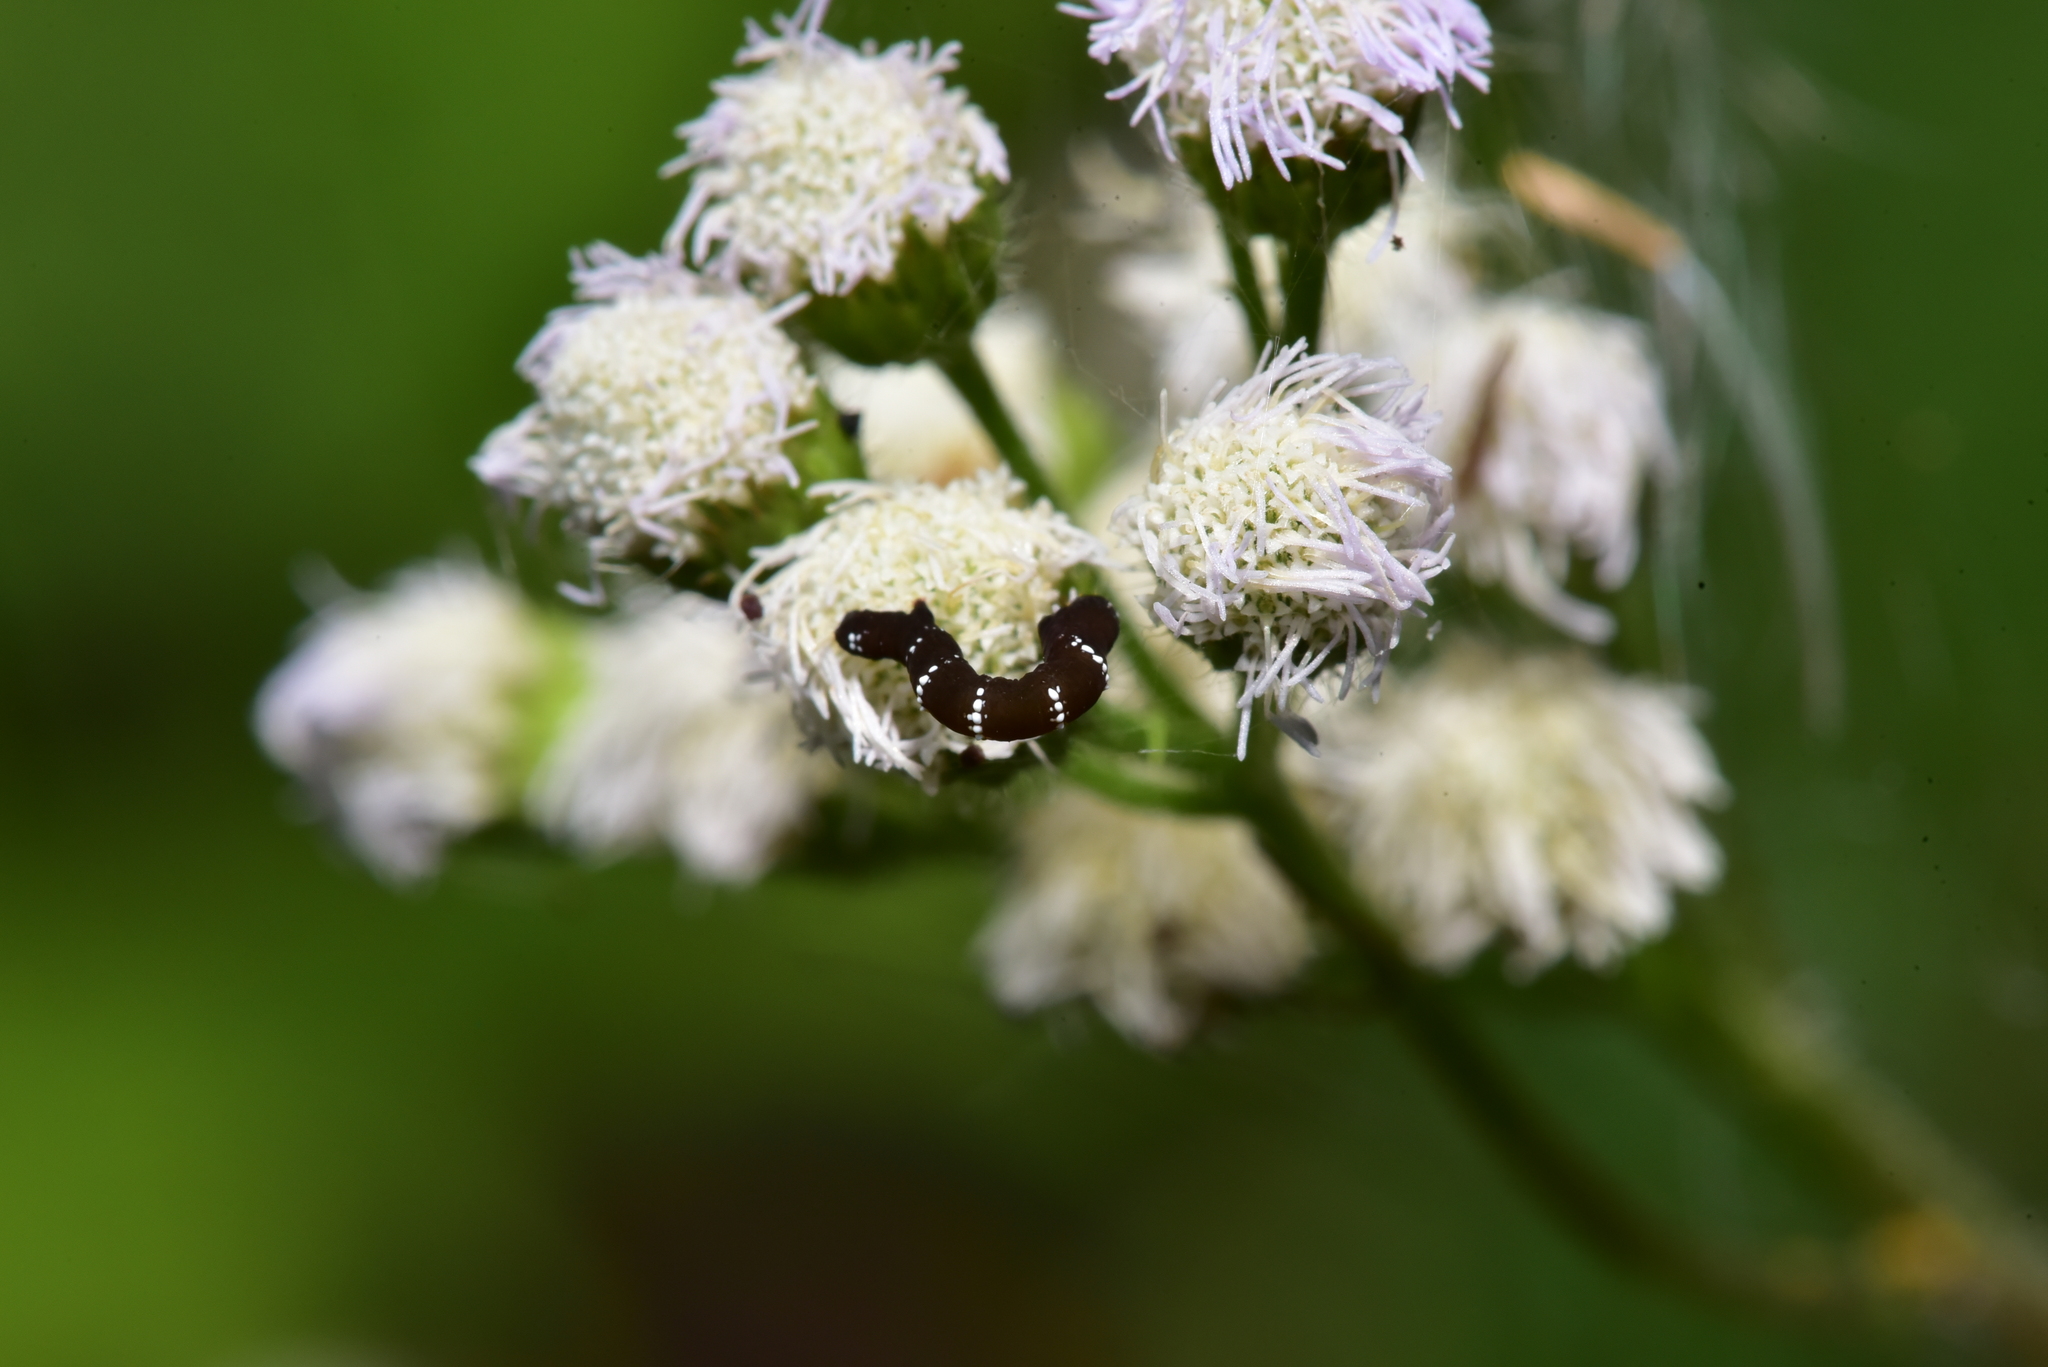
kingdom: Animalia
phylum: Arthropoda
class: Insecta
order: Lepidoptera
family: Geometridae
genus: Hyposidra
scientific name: Hyposidra talaca
